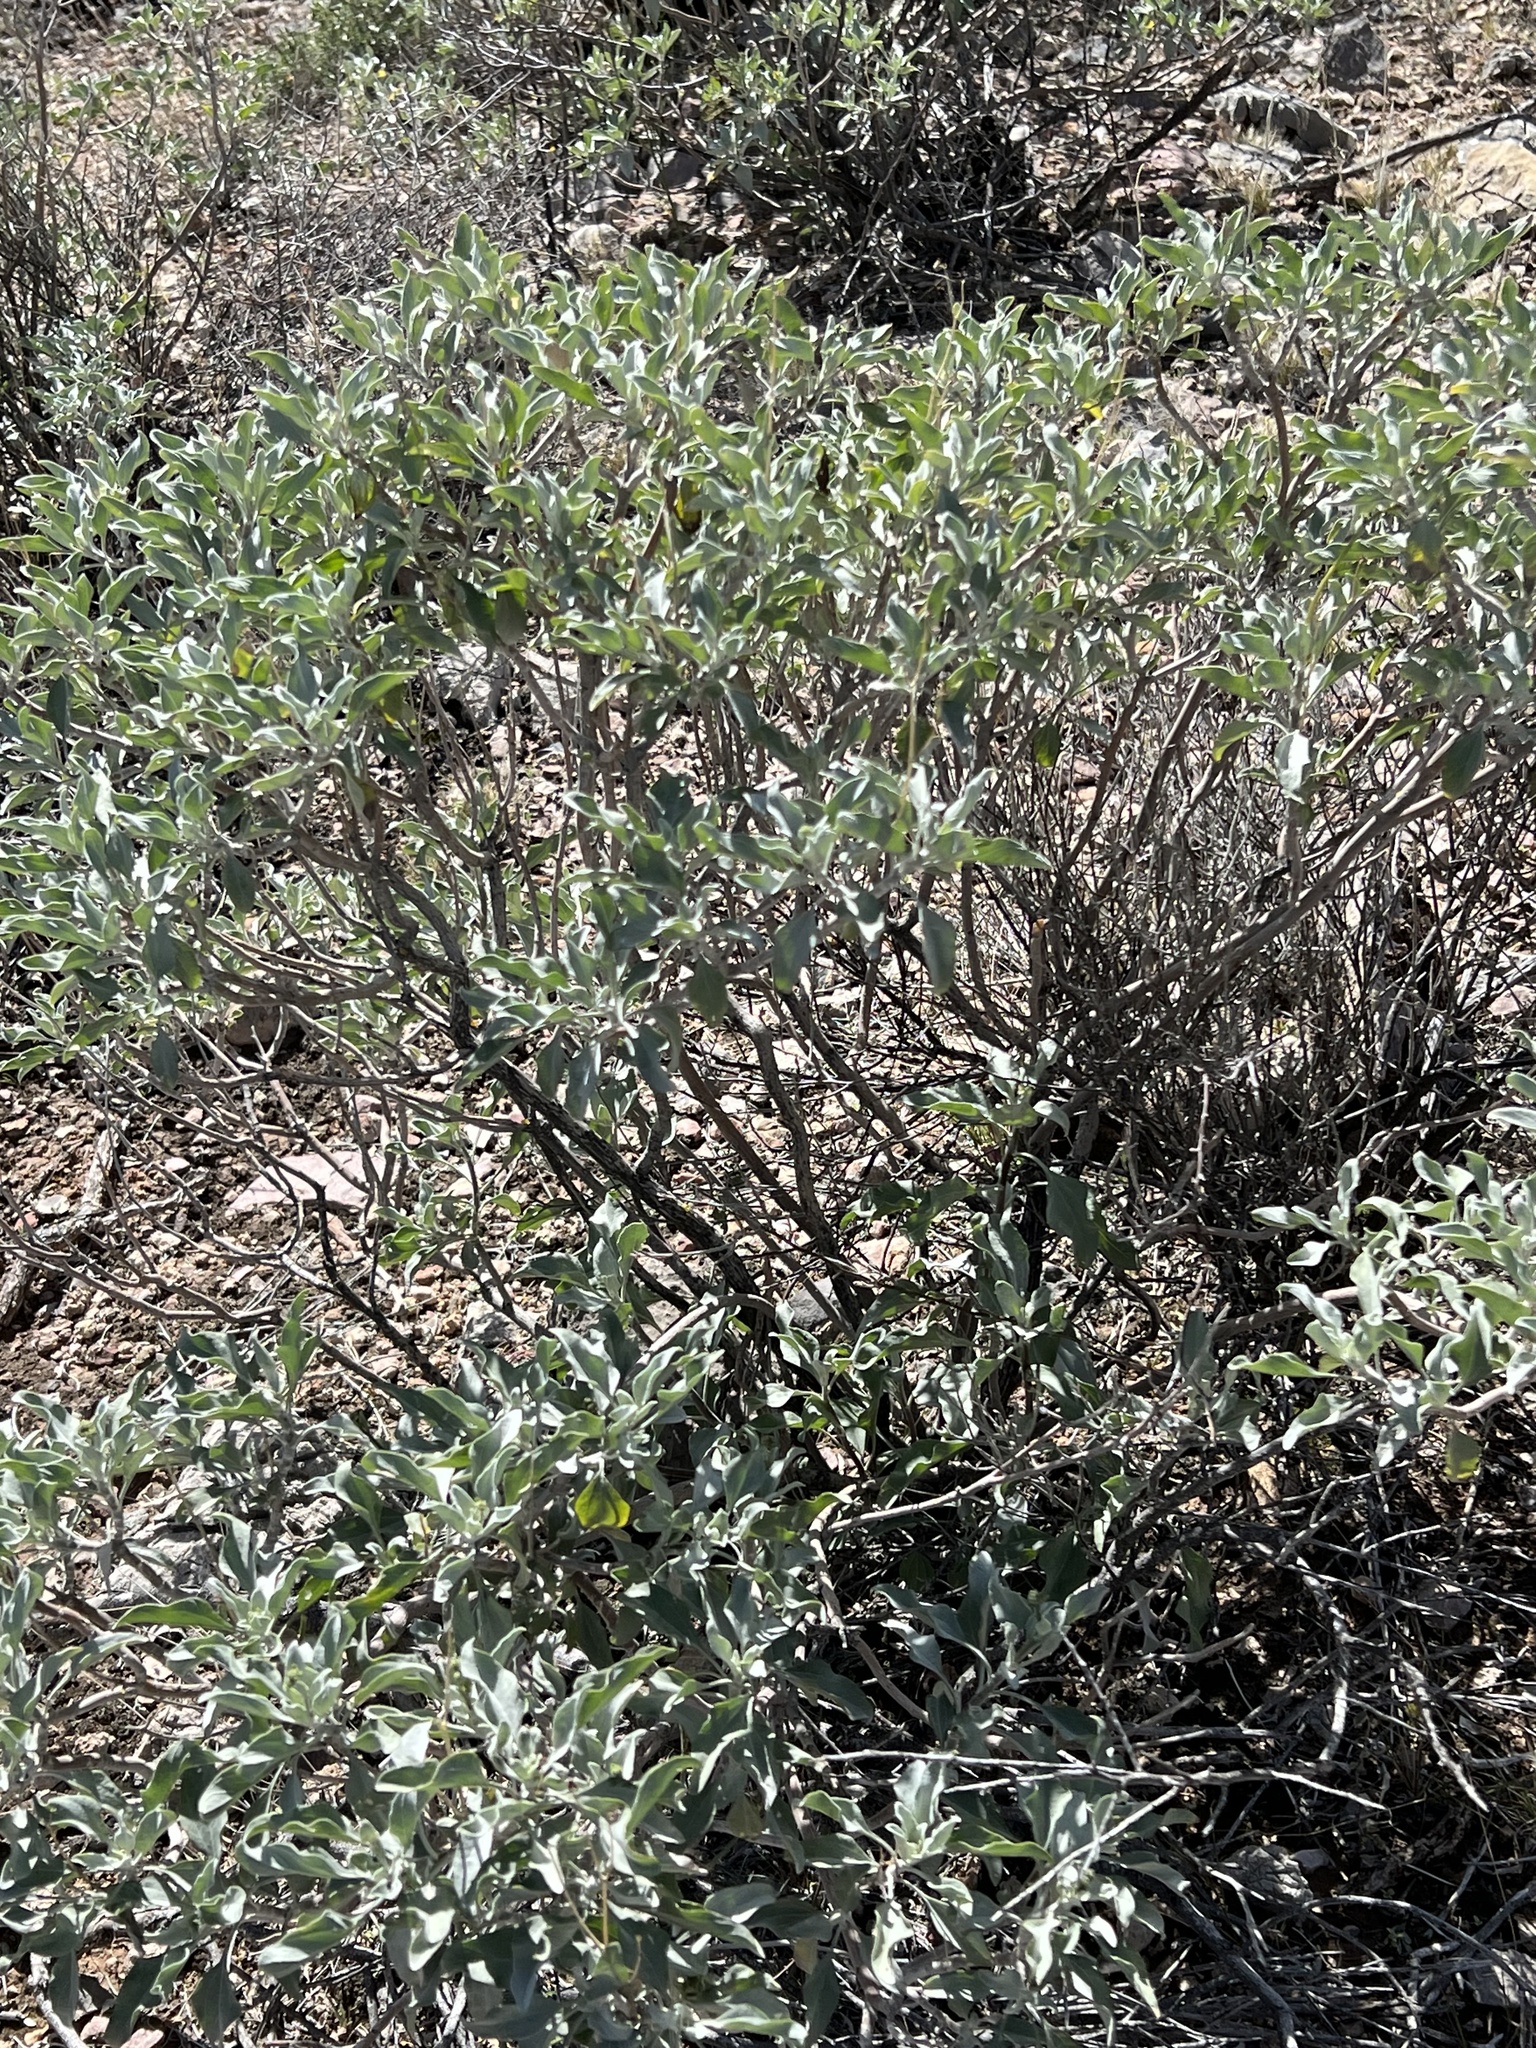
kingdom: Plantae
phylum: Tracheophyta
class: Magnoliopsida
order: Asterales
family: Asteraceae
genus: Encelia
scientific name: Encelia farinosa
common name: Brittlebush
